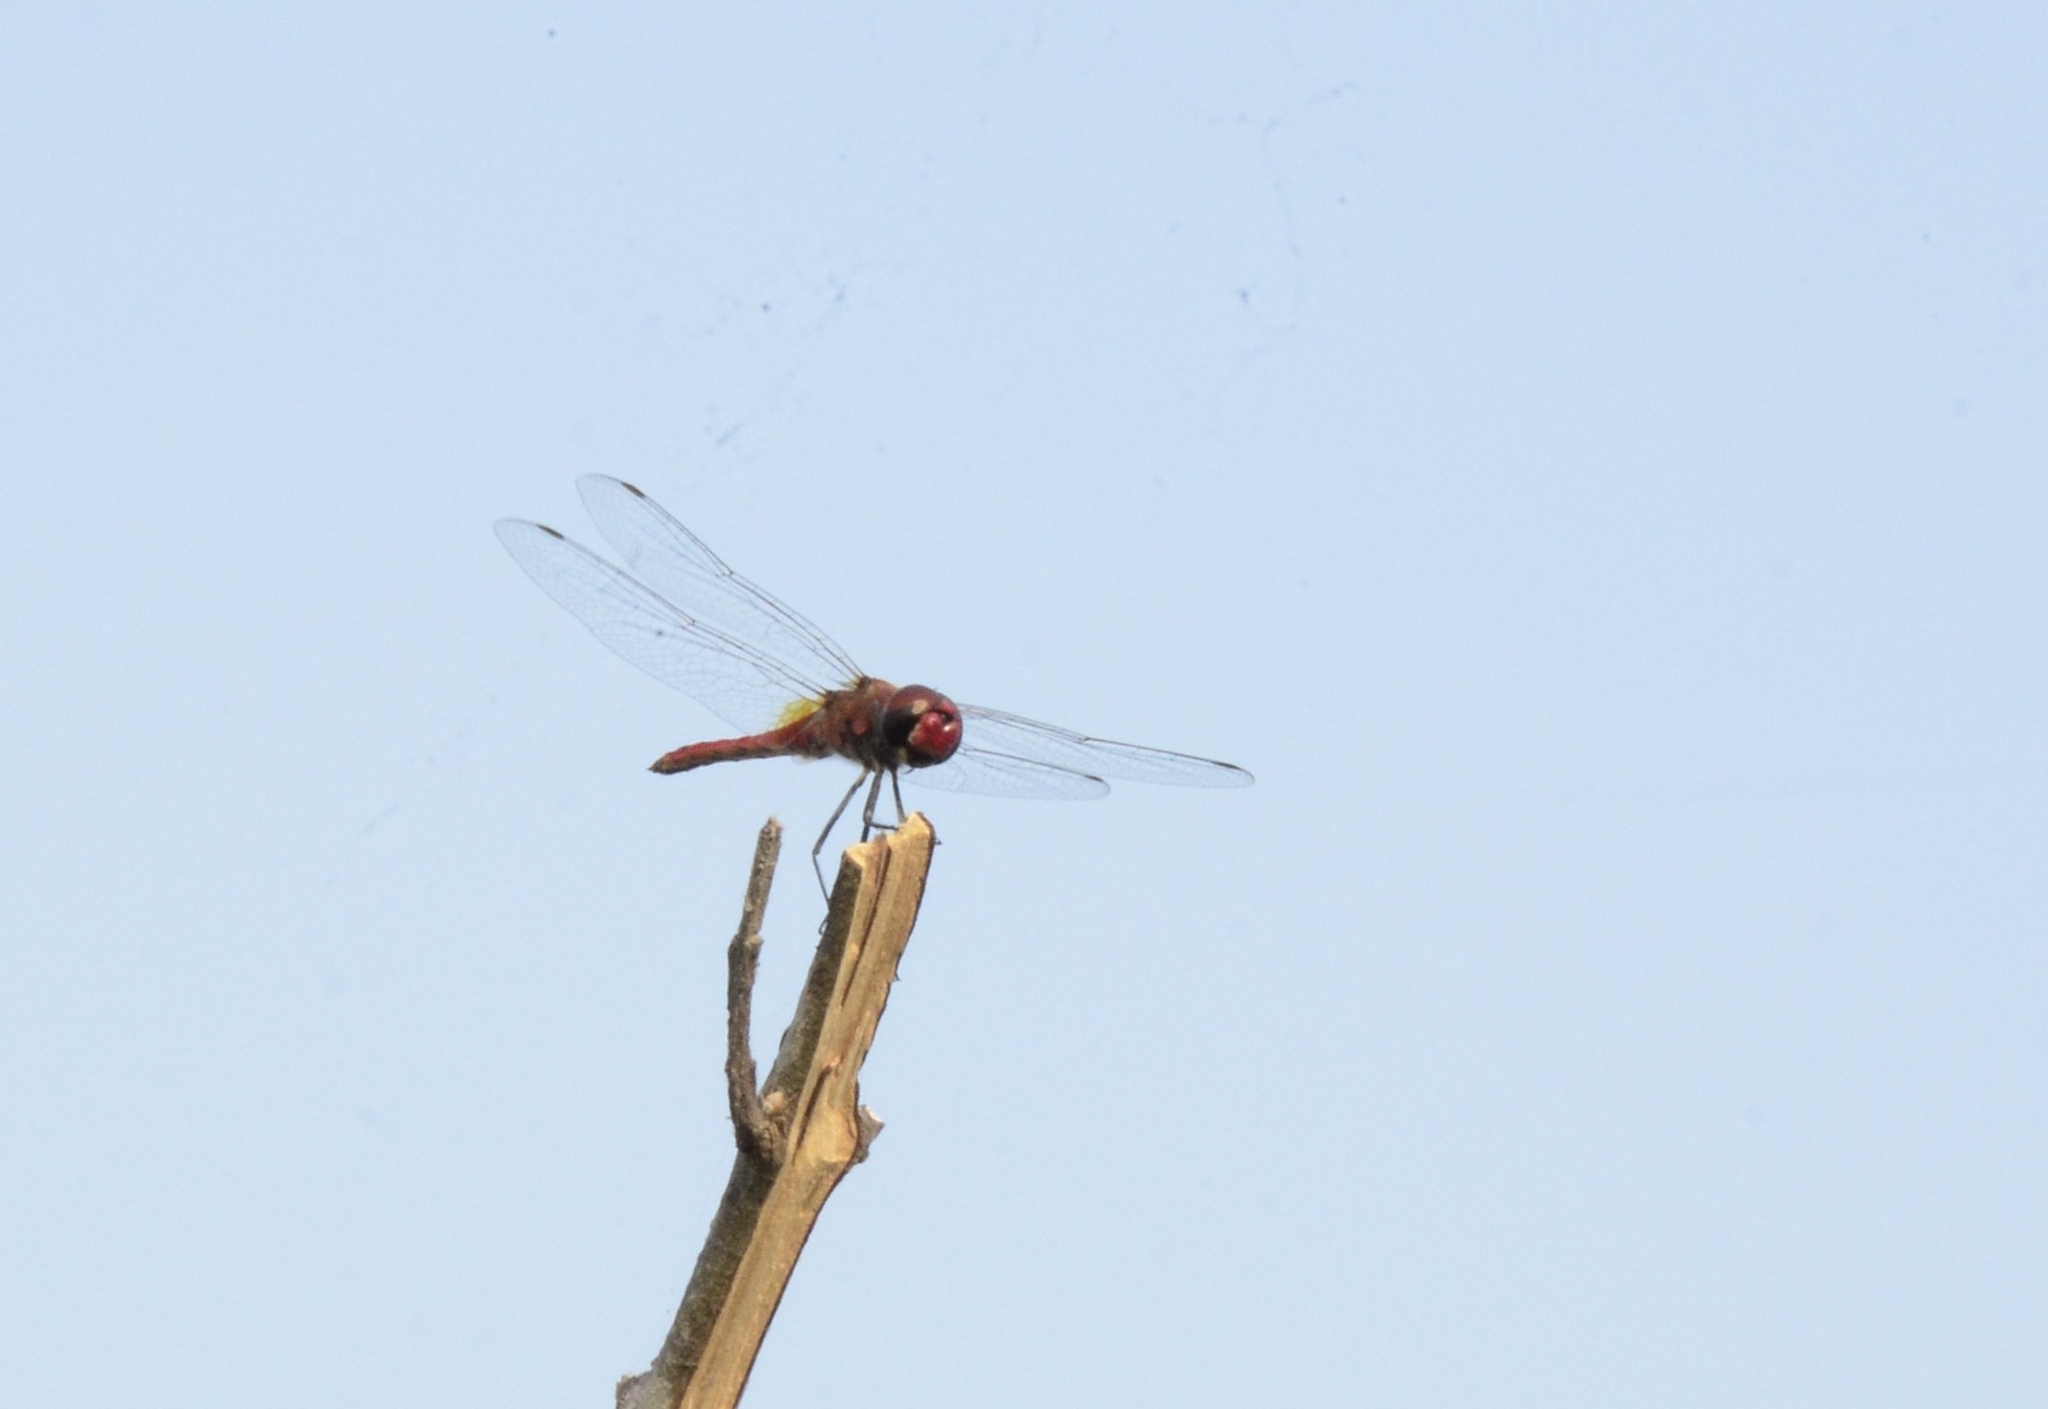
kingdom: Animalia
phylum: Arthropoda
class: Insecta
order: Odonata
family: Libellulidae
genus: Urothemis
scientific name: Urothemis signata
